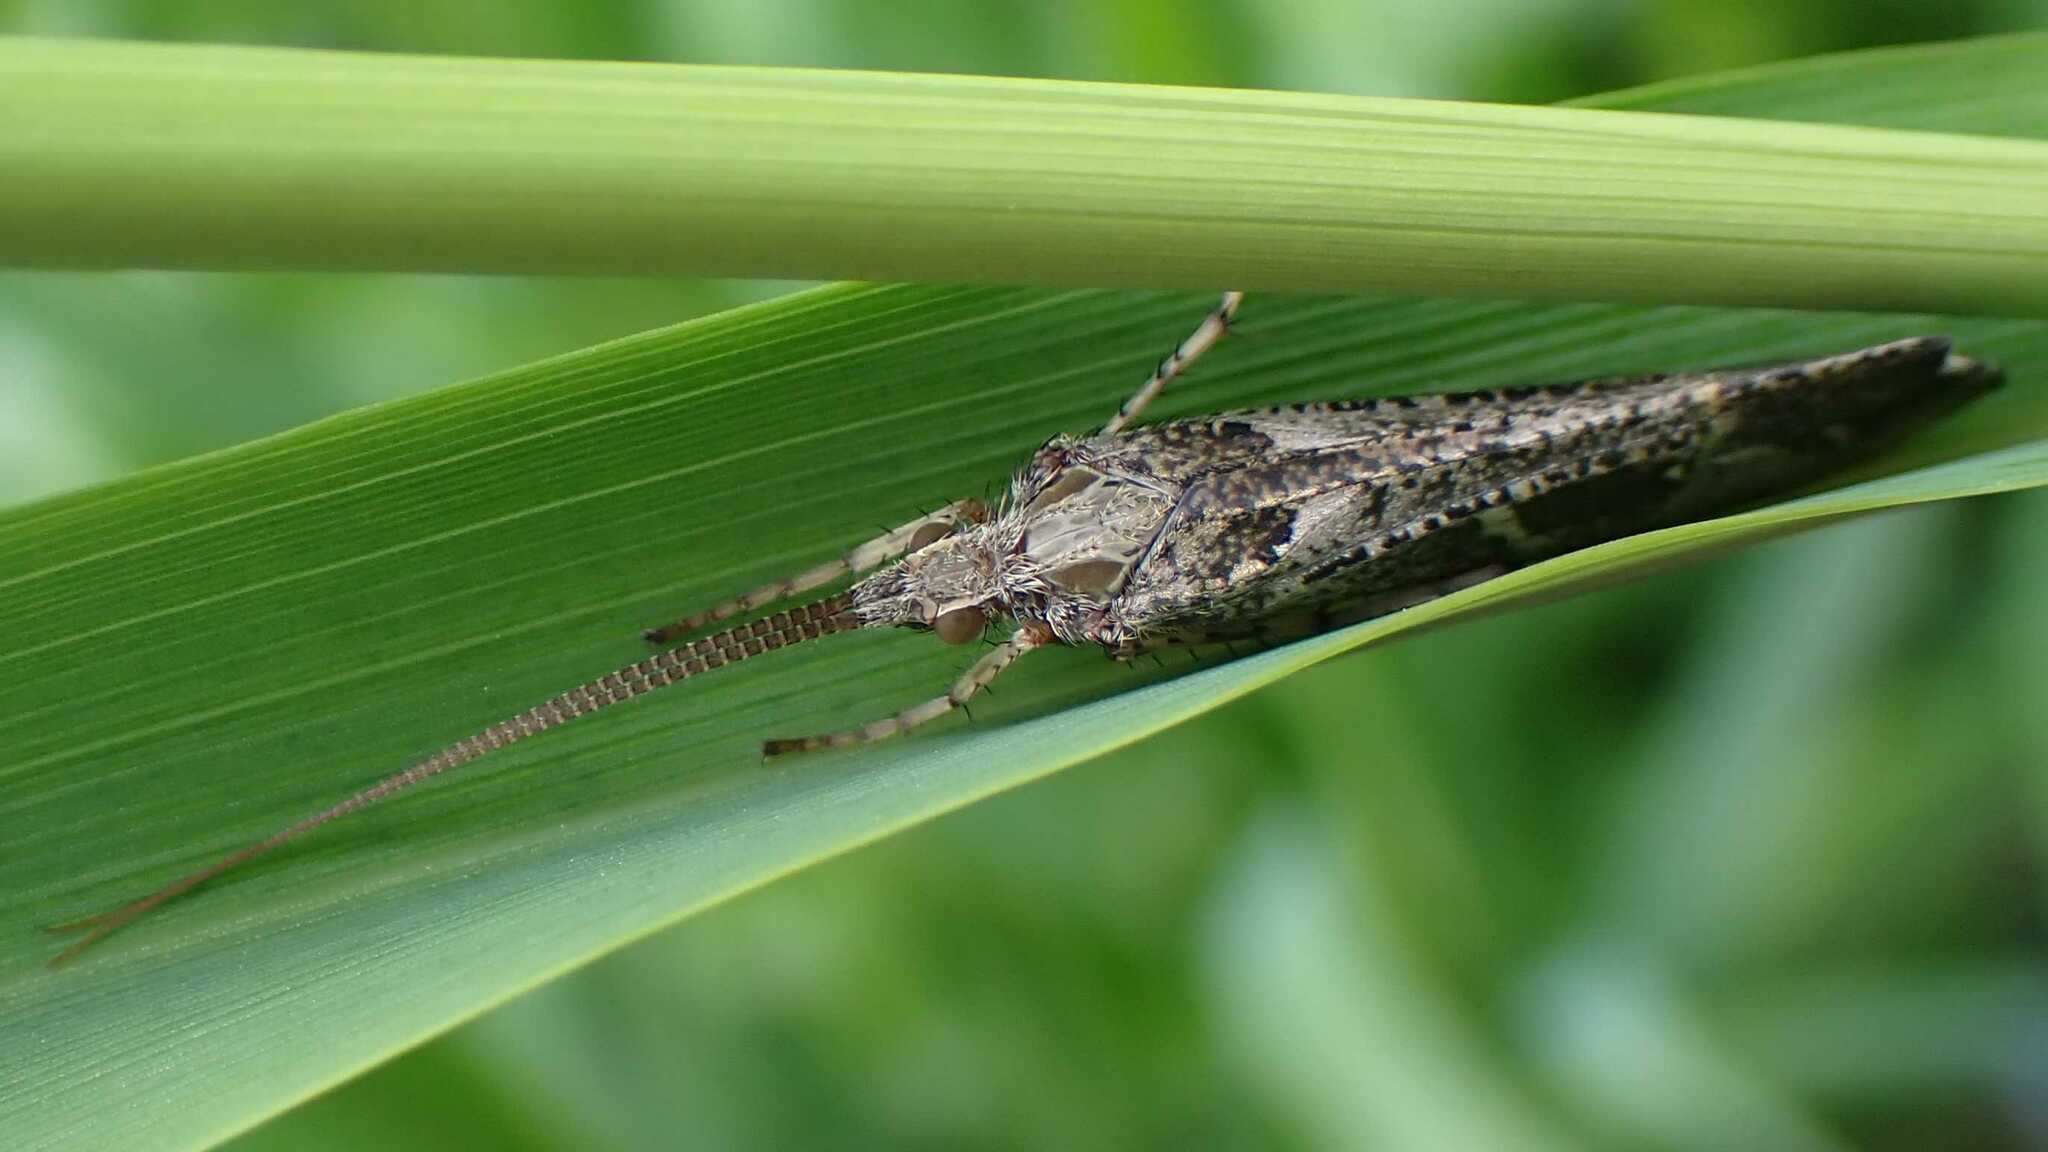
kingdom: Animalia
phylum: Arthropoda
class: Insecta
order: Trichoptera
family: Limnephilidae
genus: Glyphotaelius
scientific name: Glyphotaelius pellucidus
